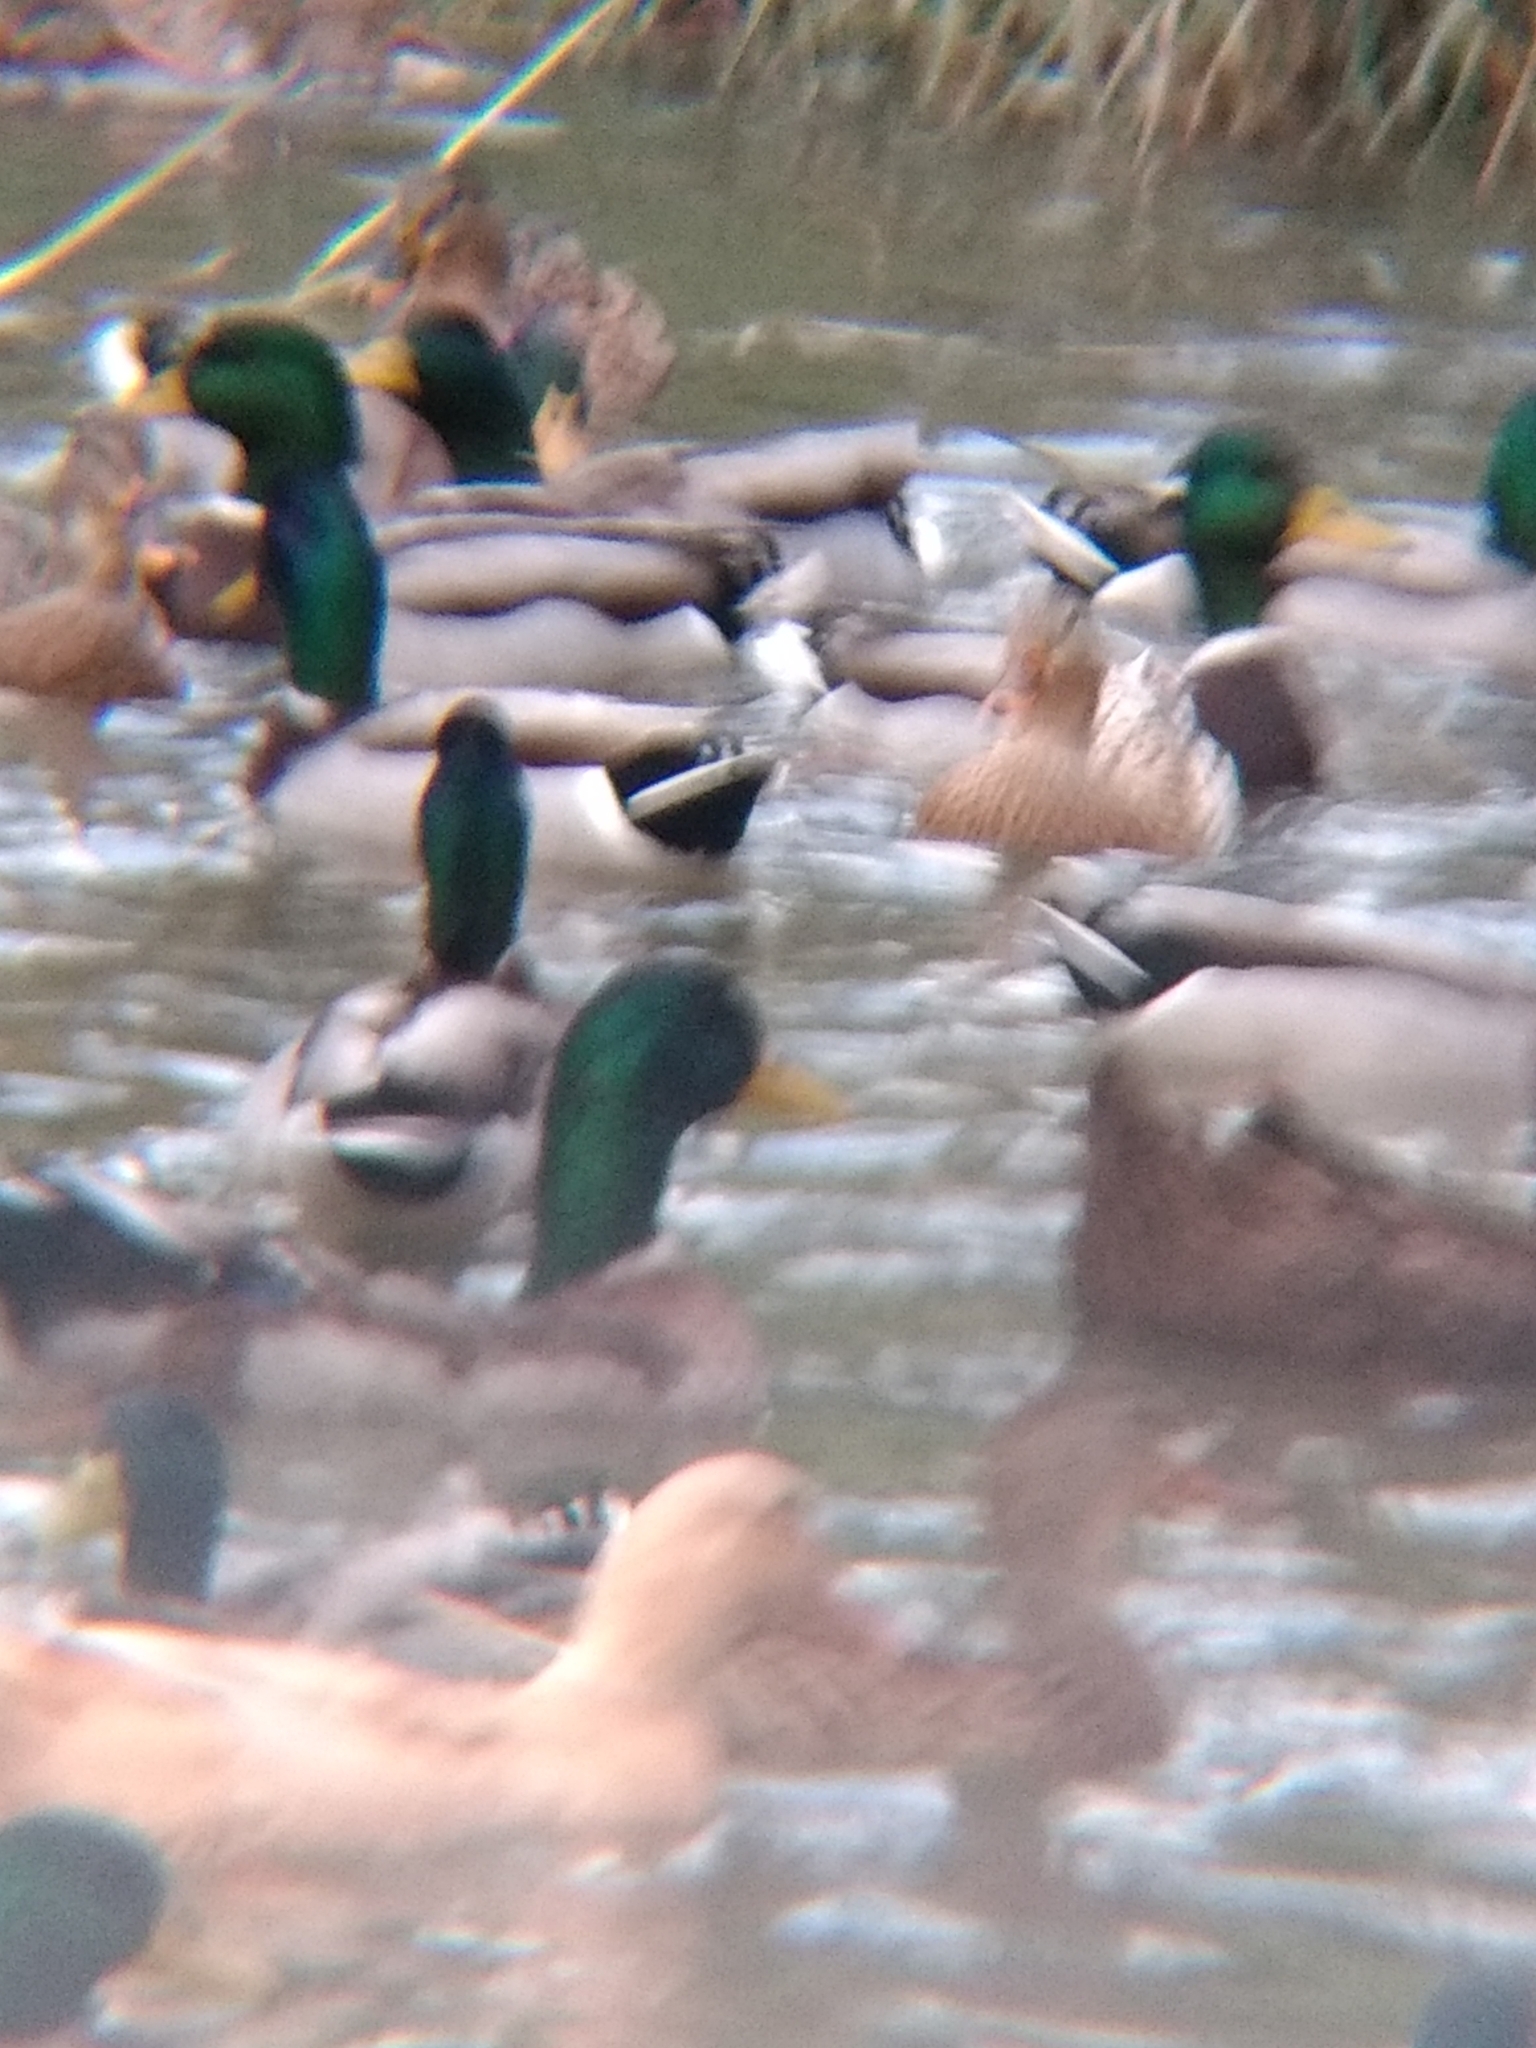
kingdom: Animalia
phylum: Chordata
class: Aves
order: Anseriformes
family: Anatidae
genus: Anas
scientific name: Anas platyrhynchos
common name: Mallard
